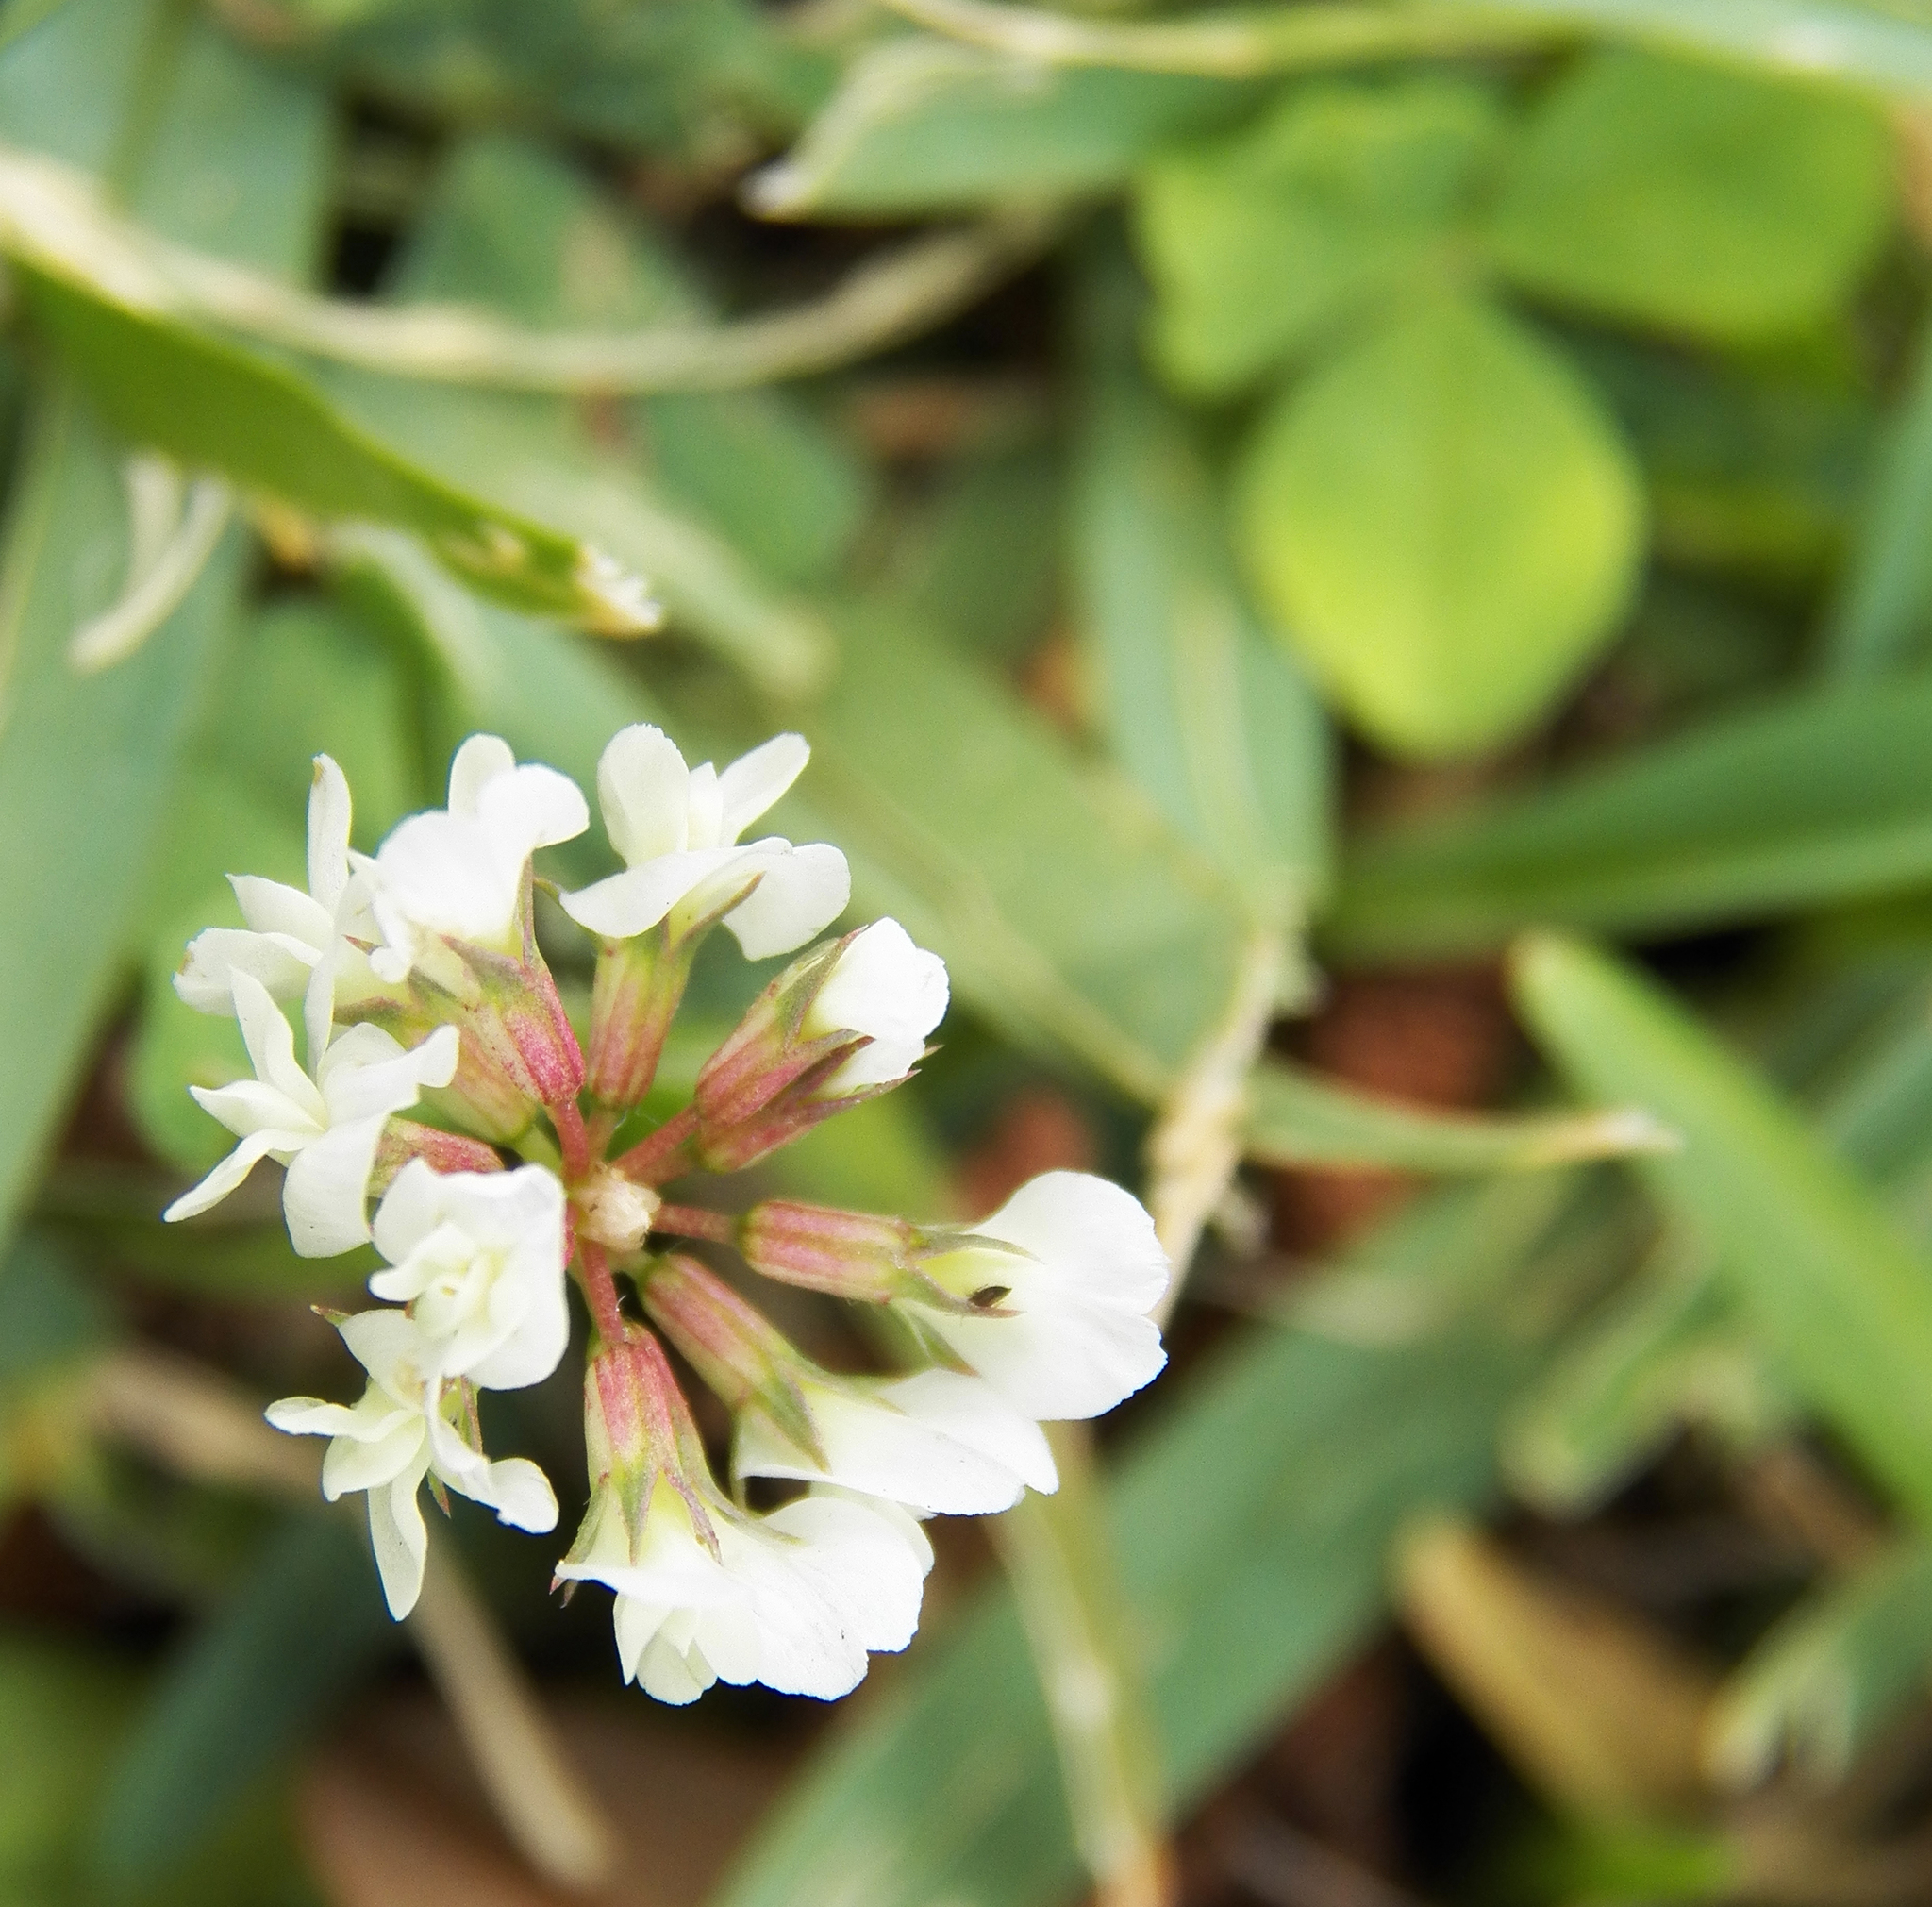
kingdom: Plantae
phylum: Tracheophyta
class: Magnoliopsida
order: Fabales
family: Fabaceae
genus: Trifolium
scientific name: Trifolium repens
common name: White clover
